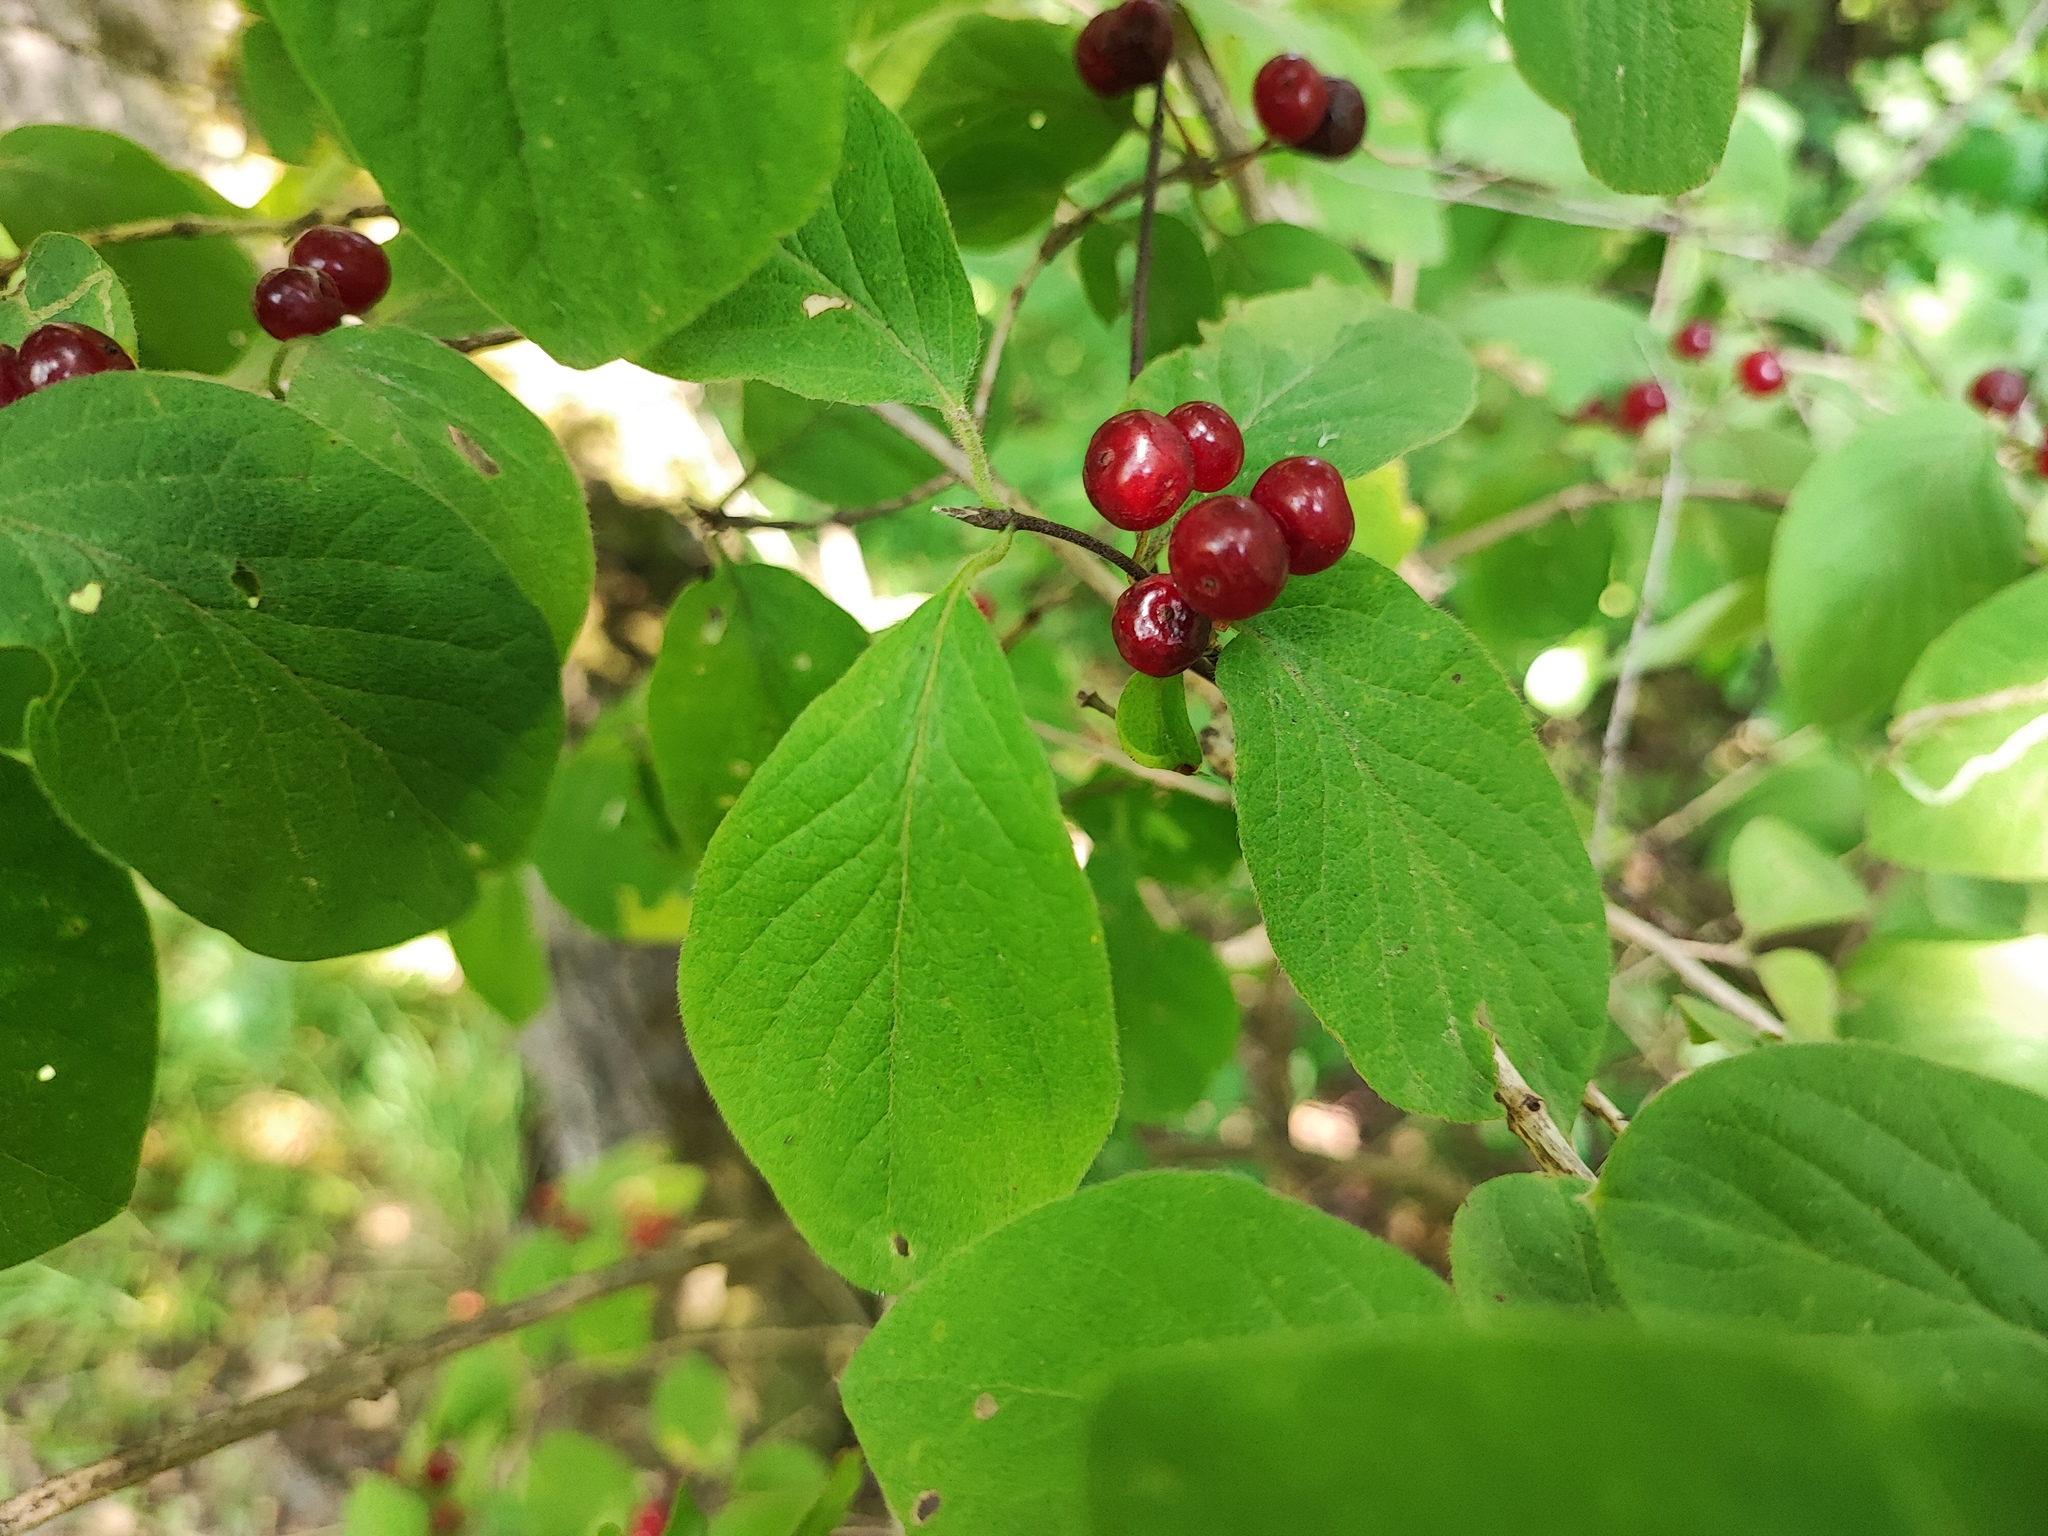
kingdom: Plantae
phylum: Tracheophyta
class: Magnoliopsida
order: Dipsacales
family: Caprifoliaceae
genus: Lonicera
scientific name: Lonicera xylosteum
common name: Fly honeysuckle
